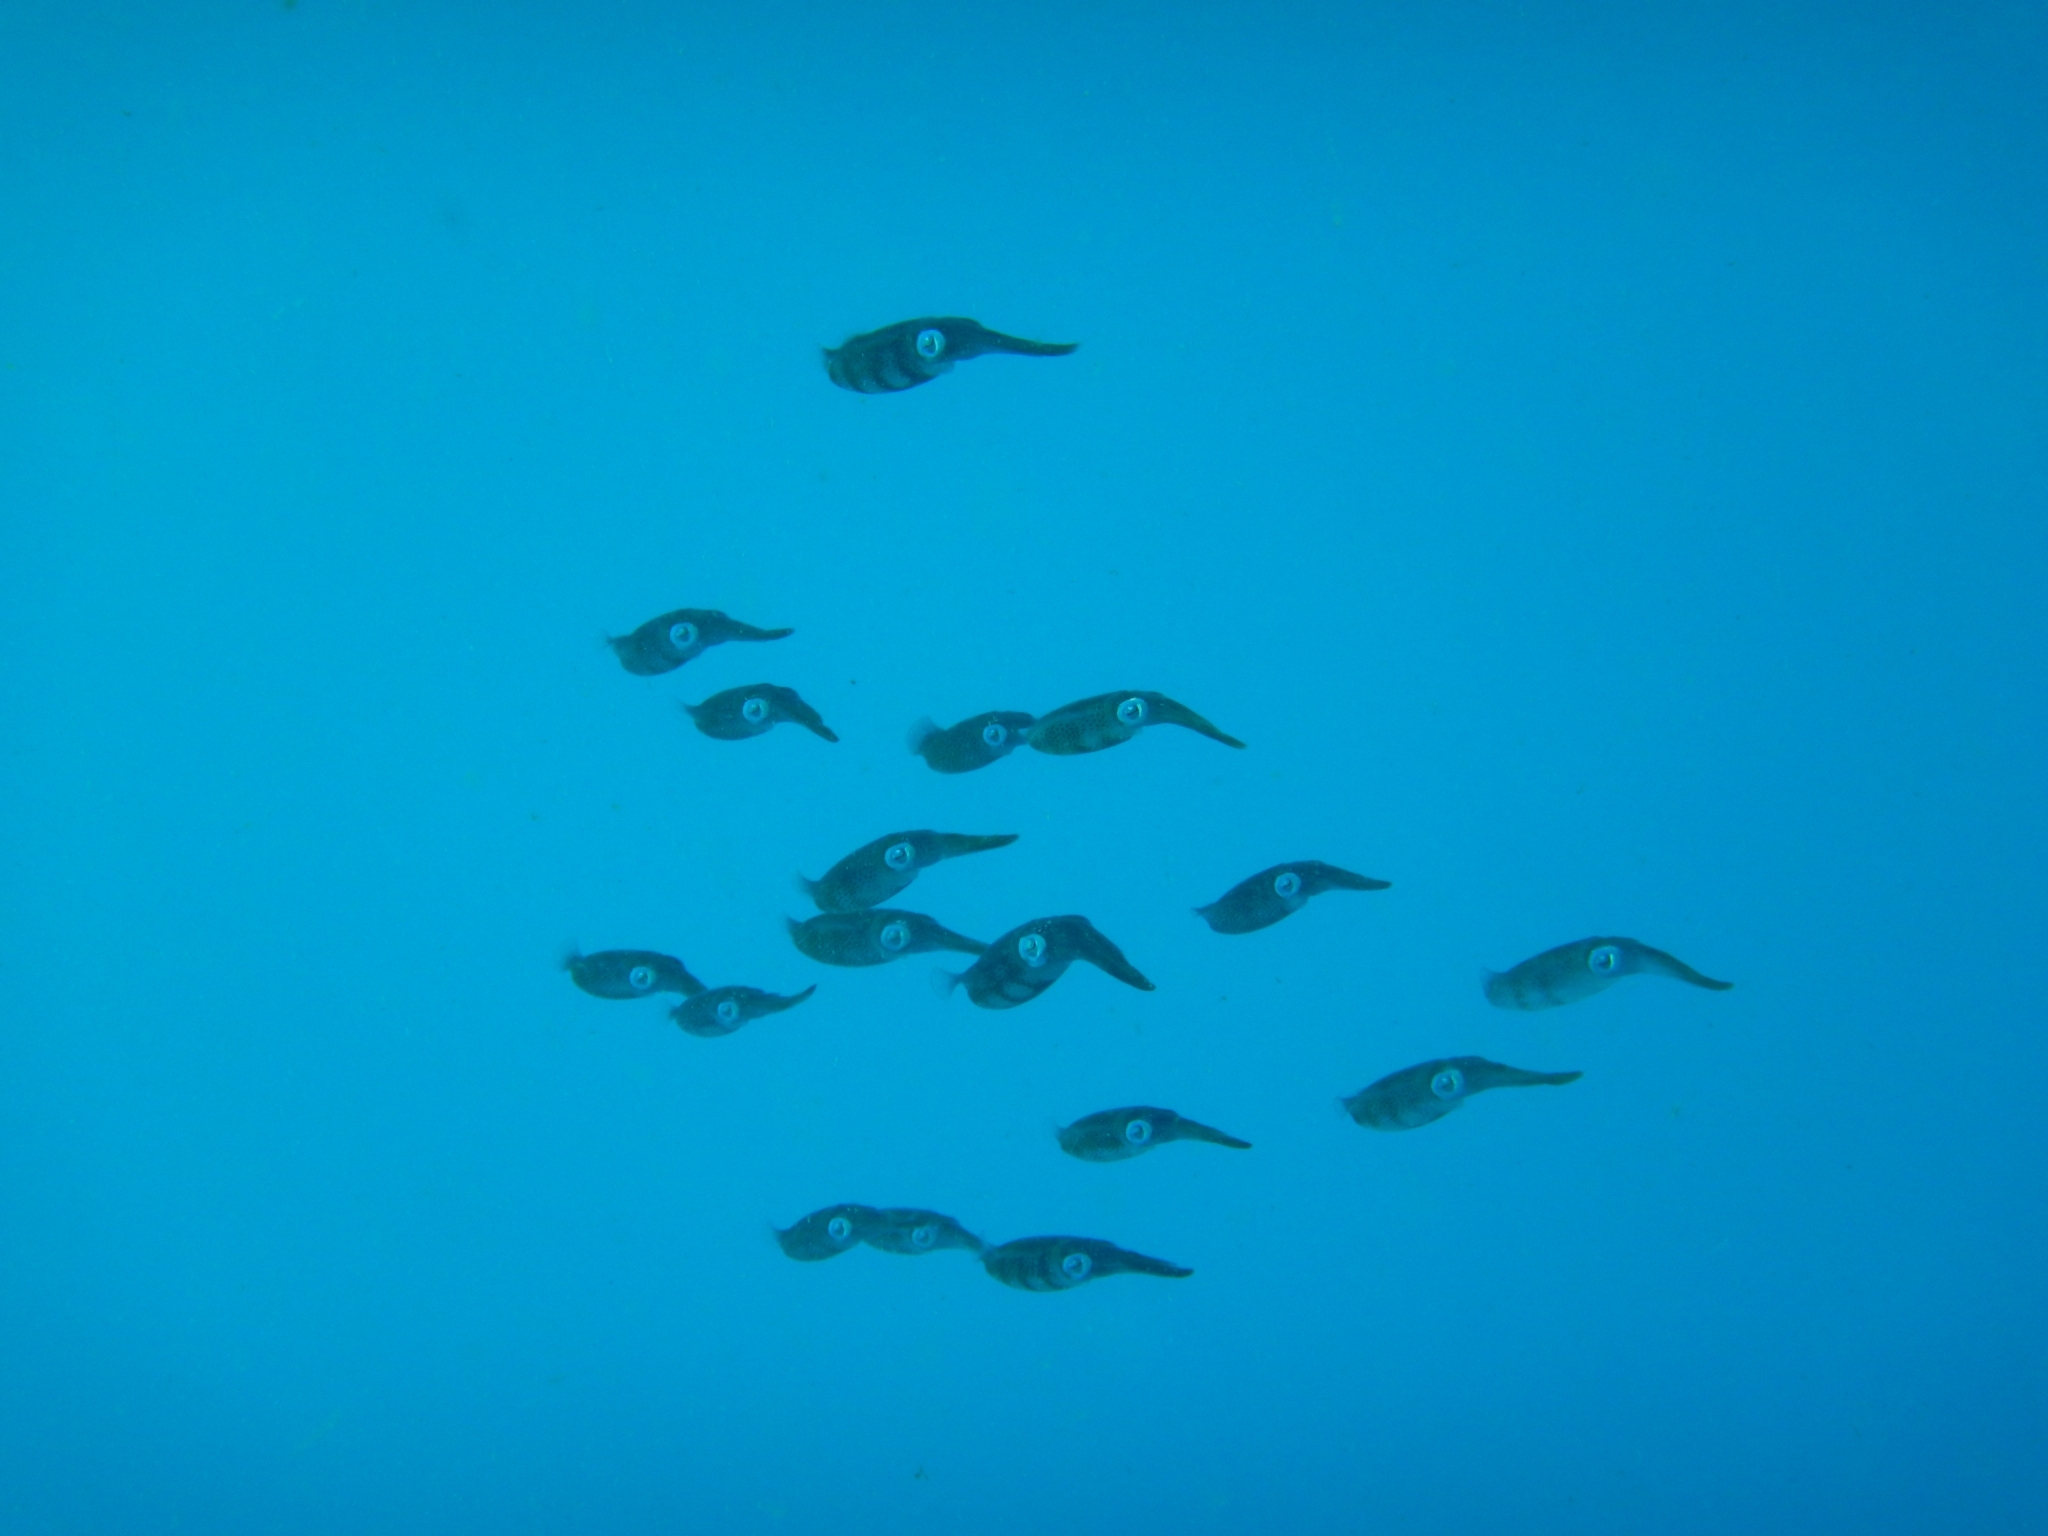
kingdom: Animalia
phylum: Mollusca
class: Cephalopoda
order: Myopsida
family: Loliginidae
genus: Sepioteuthis
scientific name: Sepioteuthis sepioidea
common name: Caribbean reef squid
